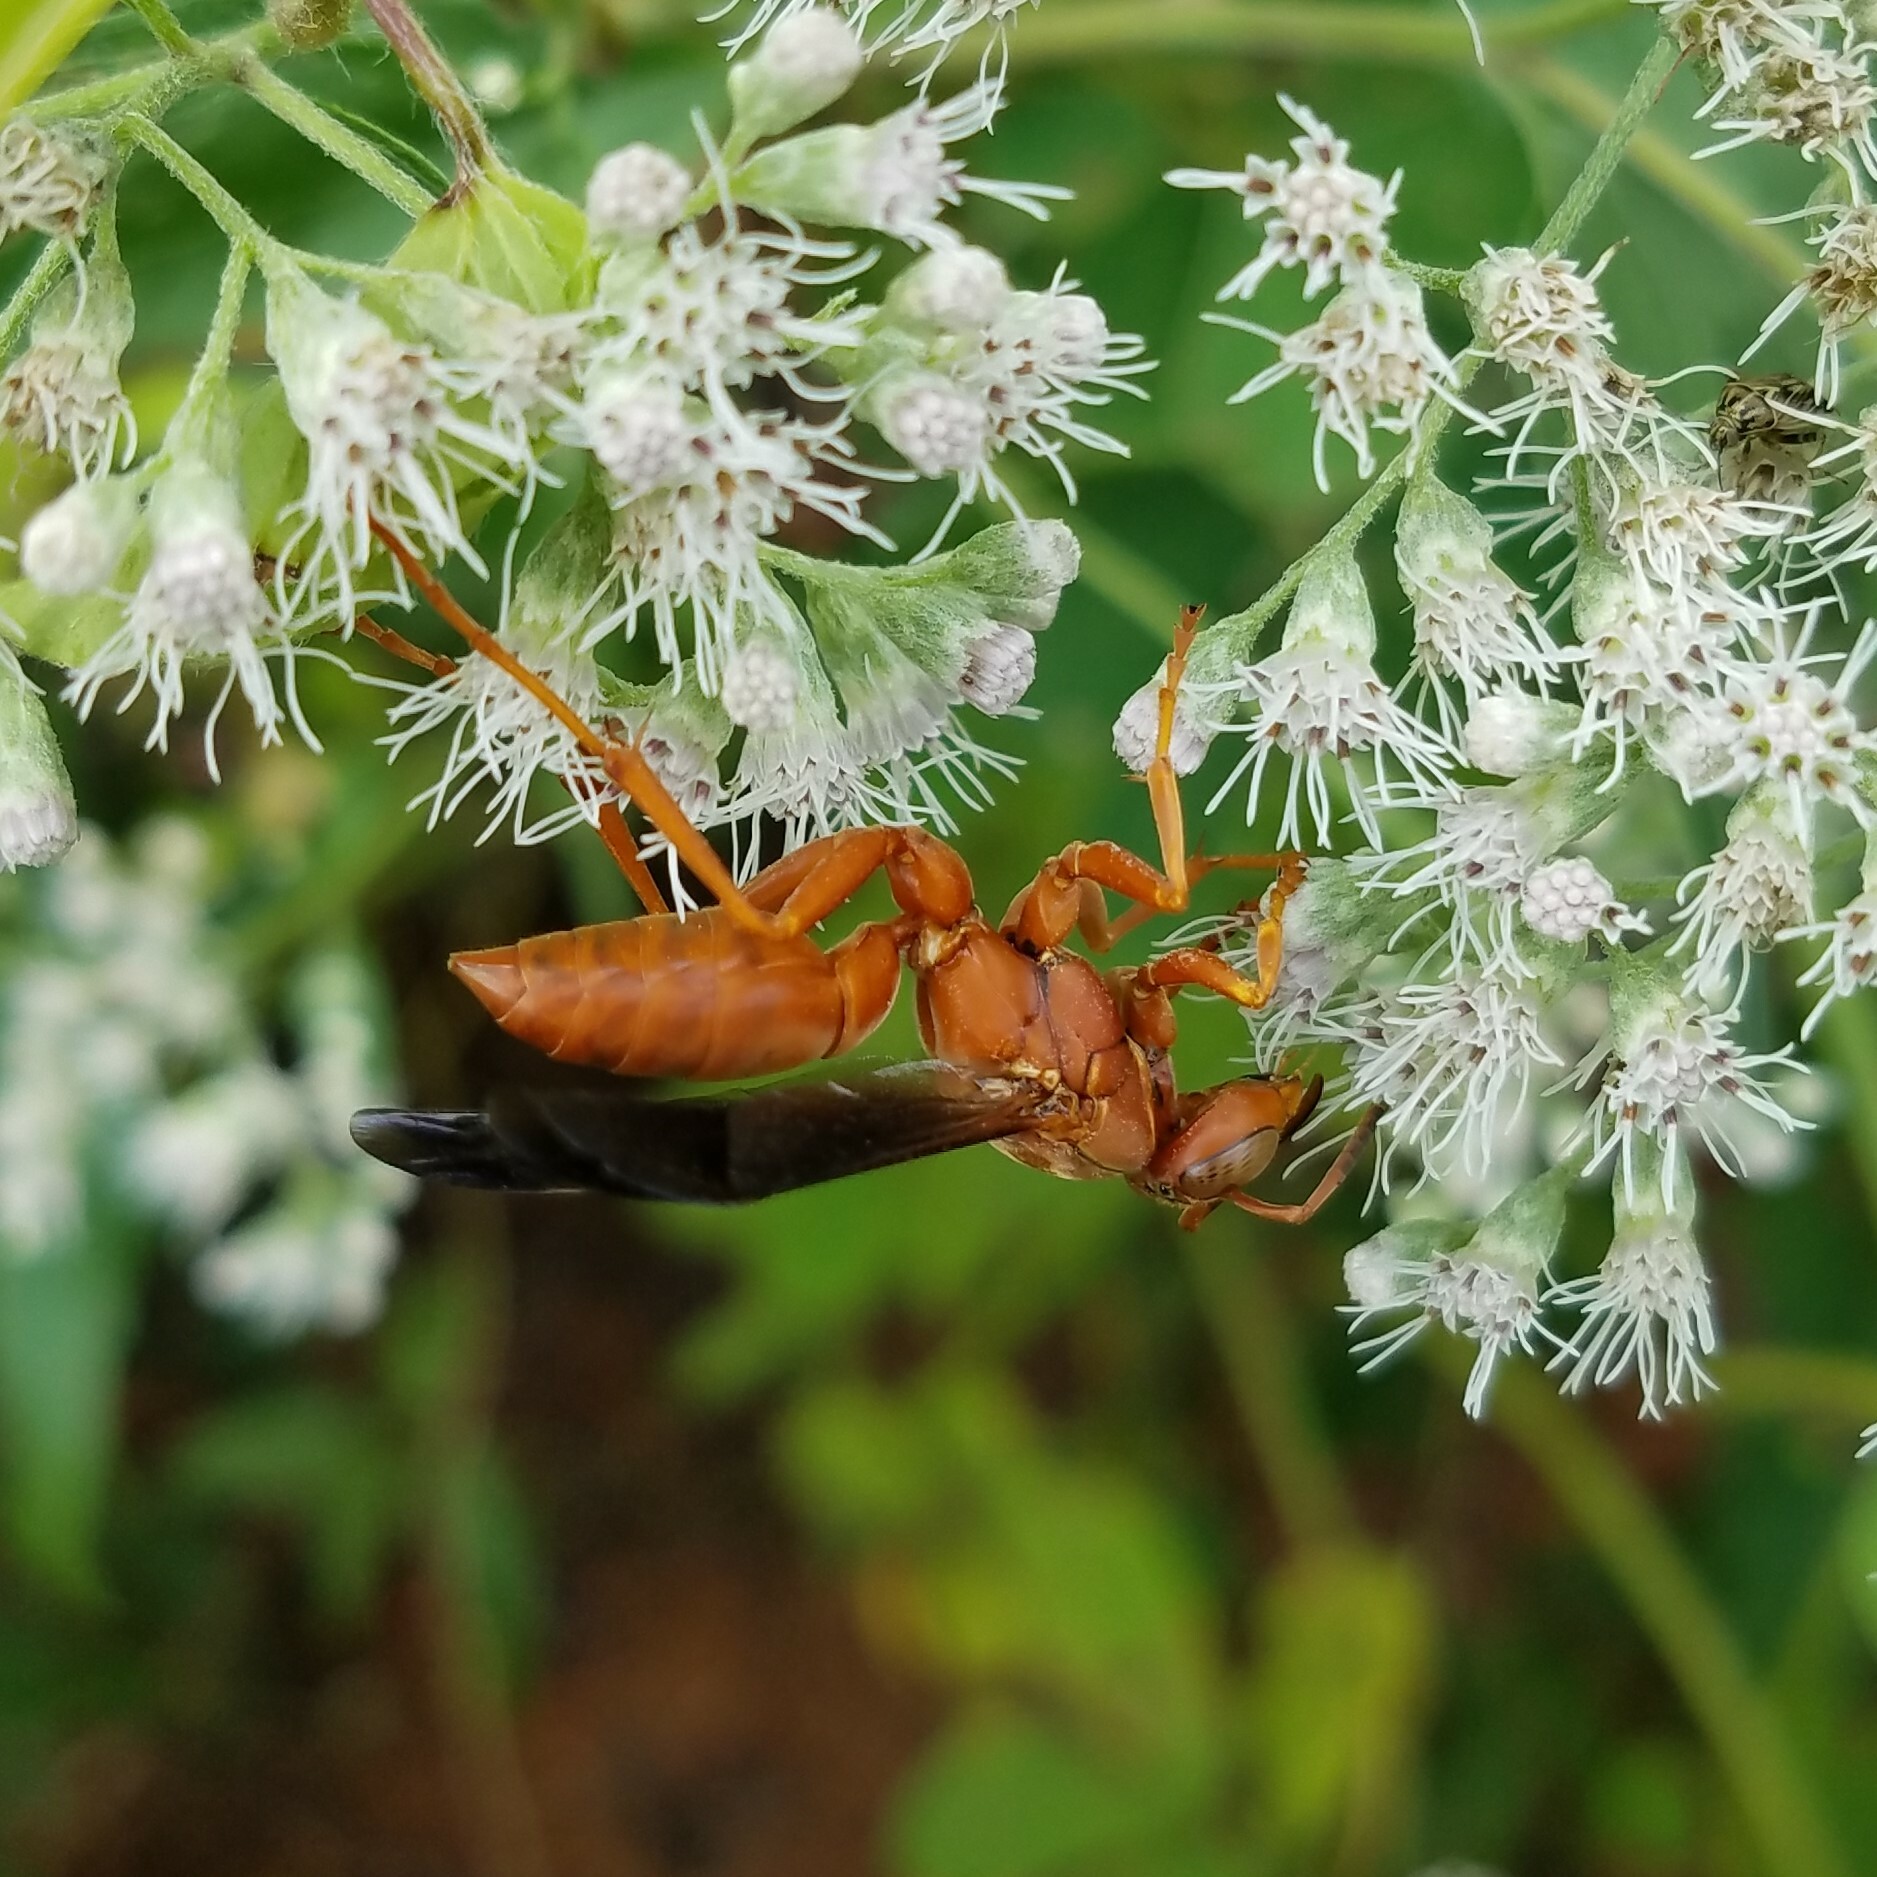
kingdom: Animalia
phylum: Arthropoda
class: Insecta
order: Hymenoptera
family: Vespidae
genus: Fuscopolistes
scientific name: Fuscopolistes
